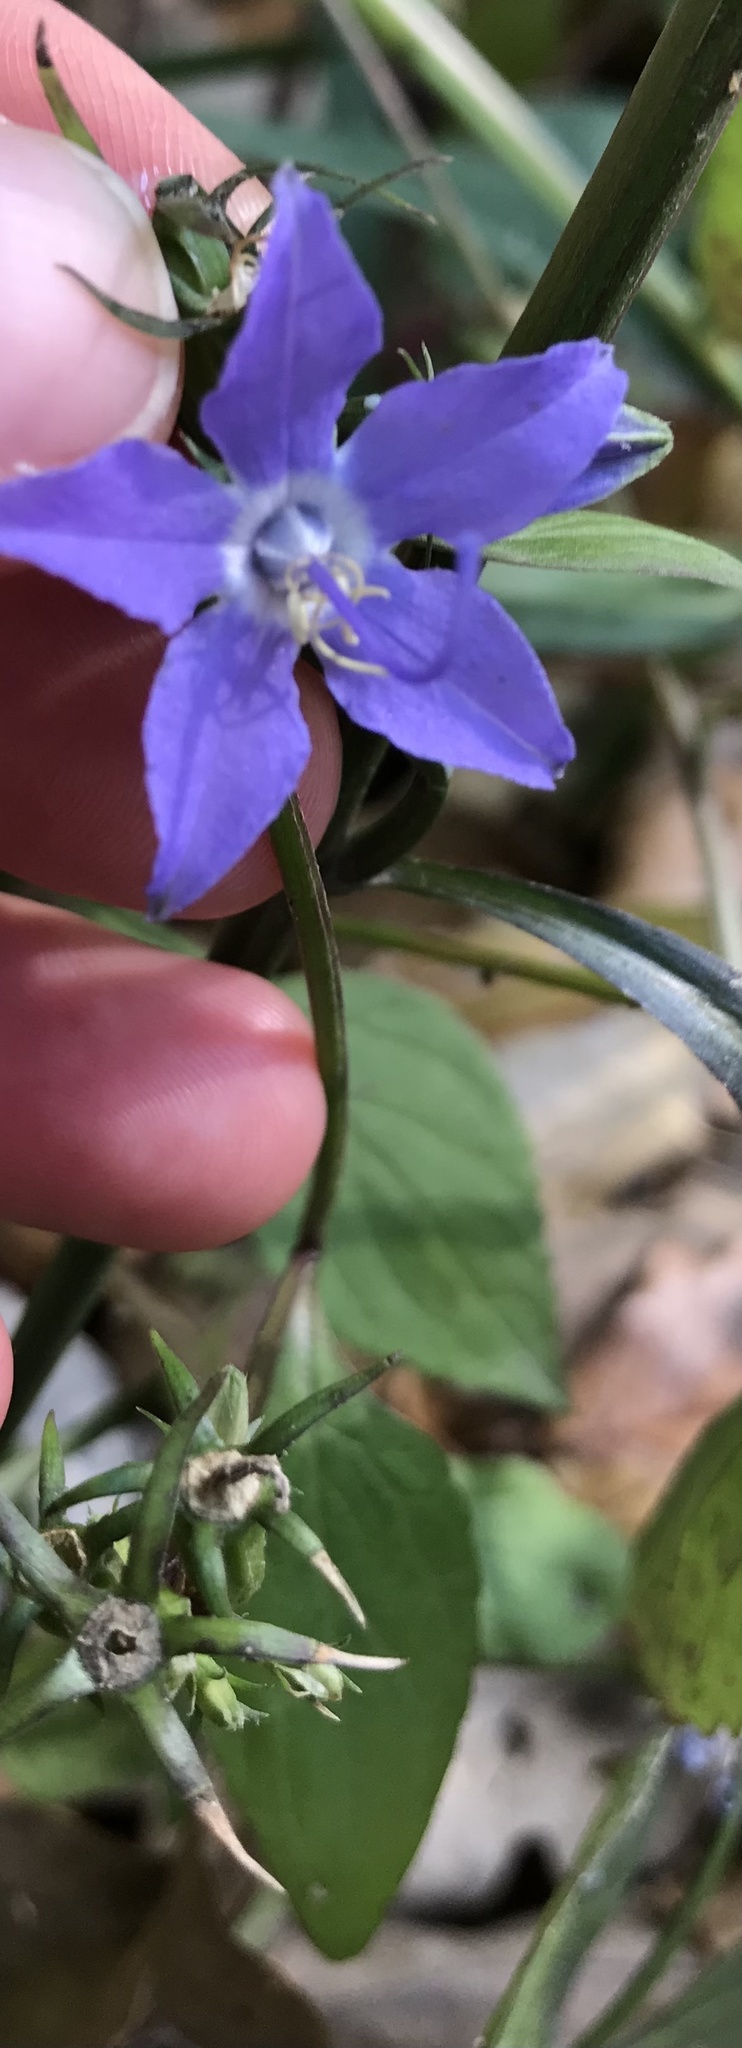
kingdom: Plantae
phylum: Tracheophyta
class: Magnoliopsida
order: Asterales
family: Campanulaceae
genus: Campanulastrum
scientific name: Campanulastrum americanum
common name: American bellflower
